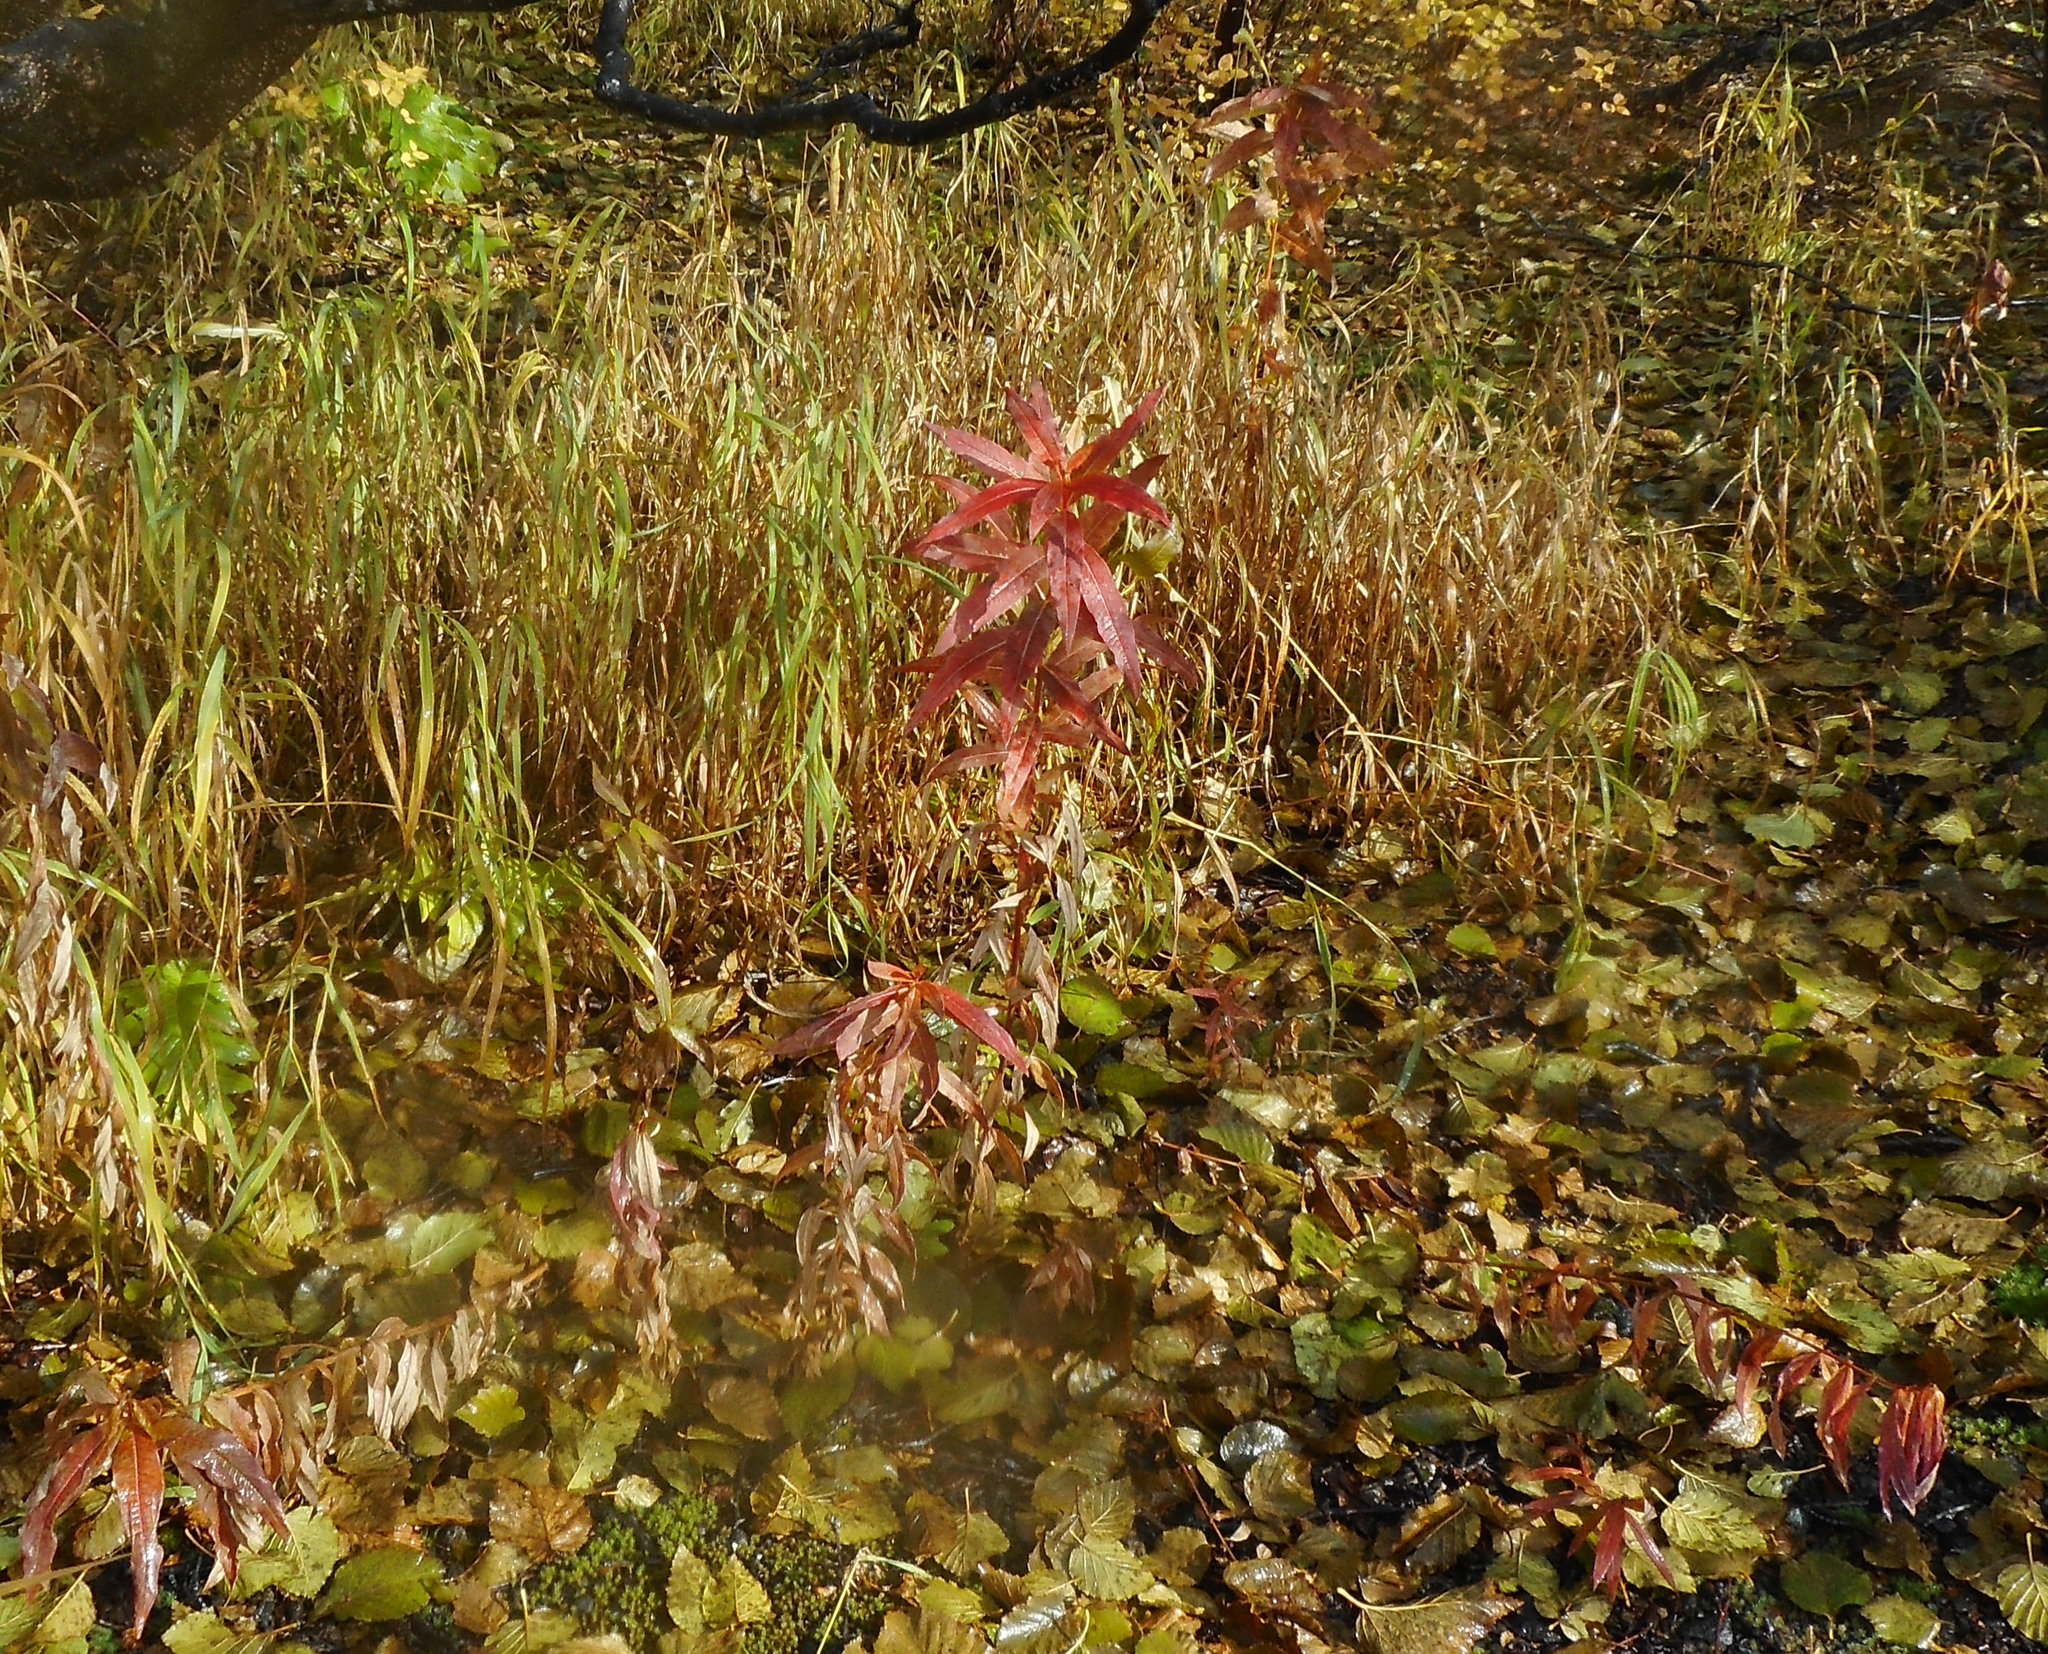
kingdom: Plantae
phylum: Tracheophyta
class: Magnoliopsida
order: Myrtales
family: Onagraceae
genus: Chamaenerion
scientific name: Chamaenerion angustifolium
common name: Fireweed
